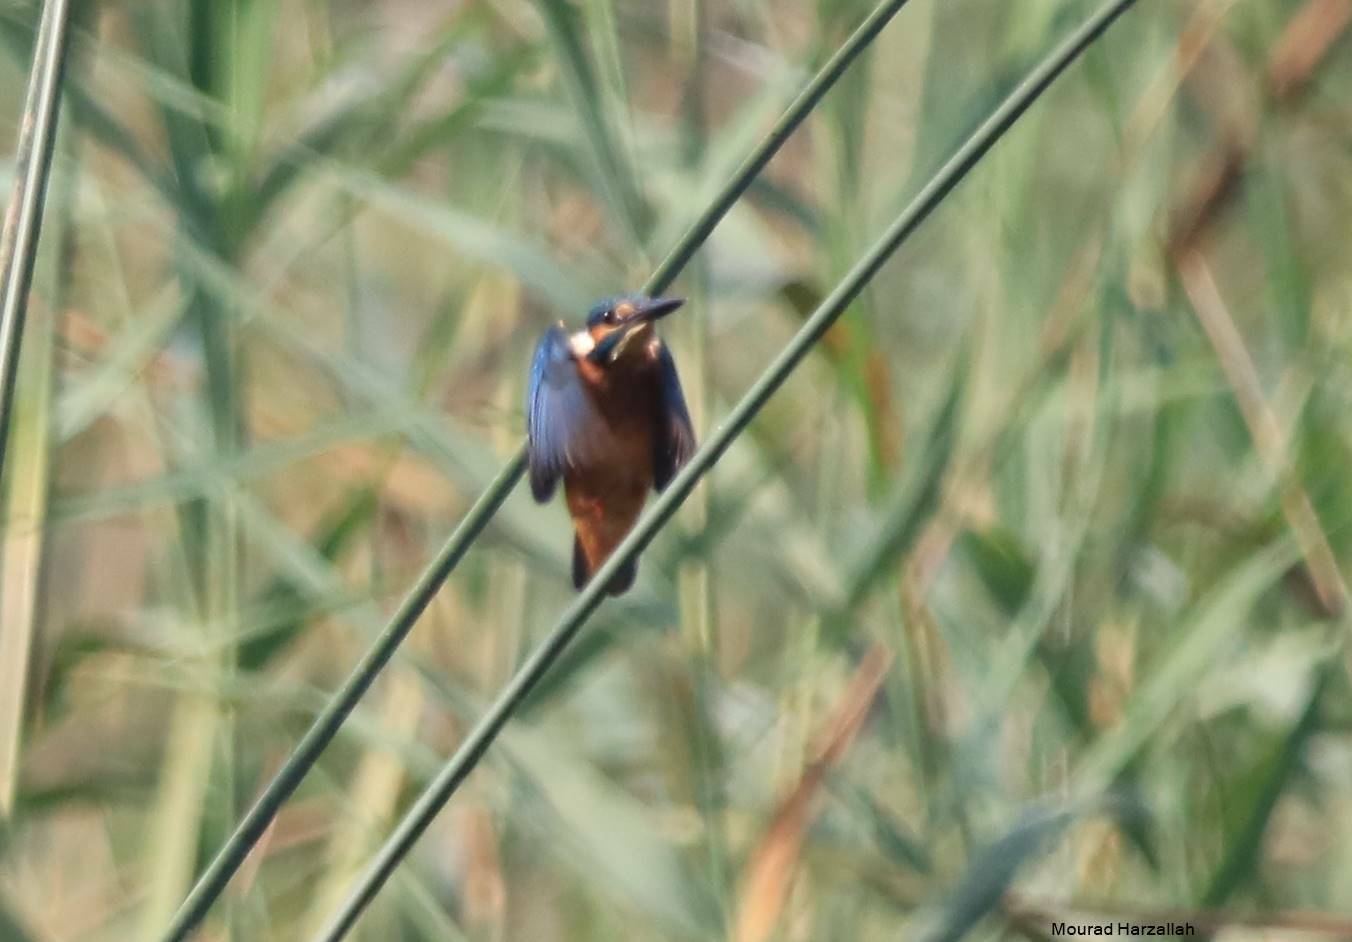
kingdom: Animalia
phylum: Chordata
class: Aves
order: Coraciiformes
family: Alcedinidae
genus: Alcedo
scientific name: Alcedo atthis
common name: Common kingfisher
